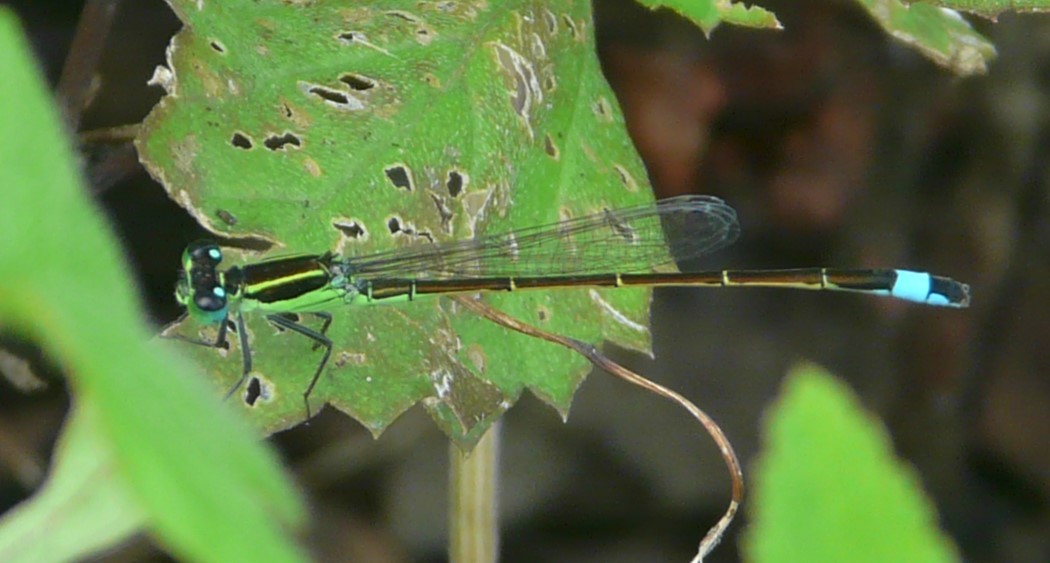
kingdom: Animalia
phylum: Arthropoda
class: Insecta
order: Odonata
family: Coenagrionidae
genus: Ischnura
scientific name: Ischnura ramburii
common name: Rambur's forktail
